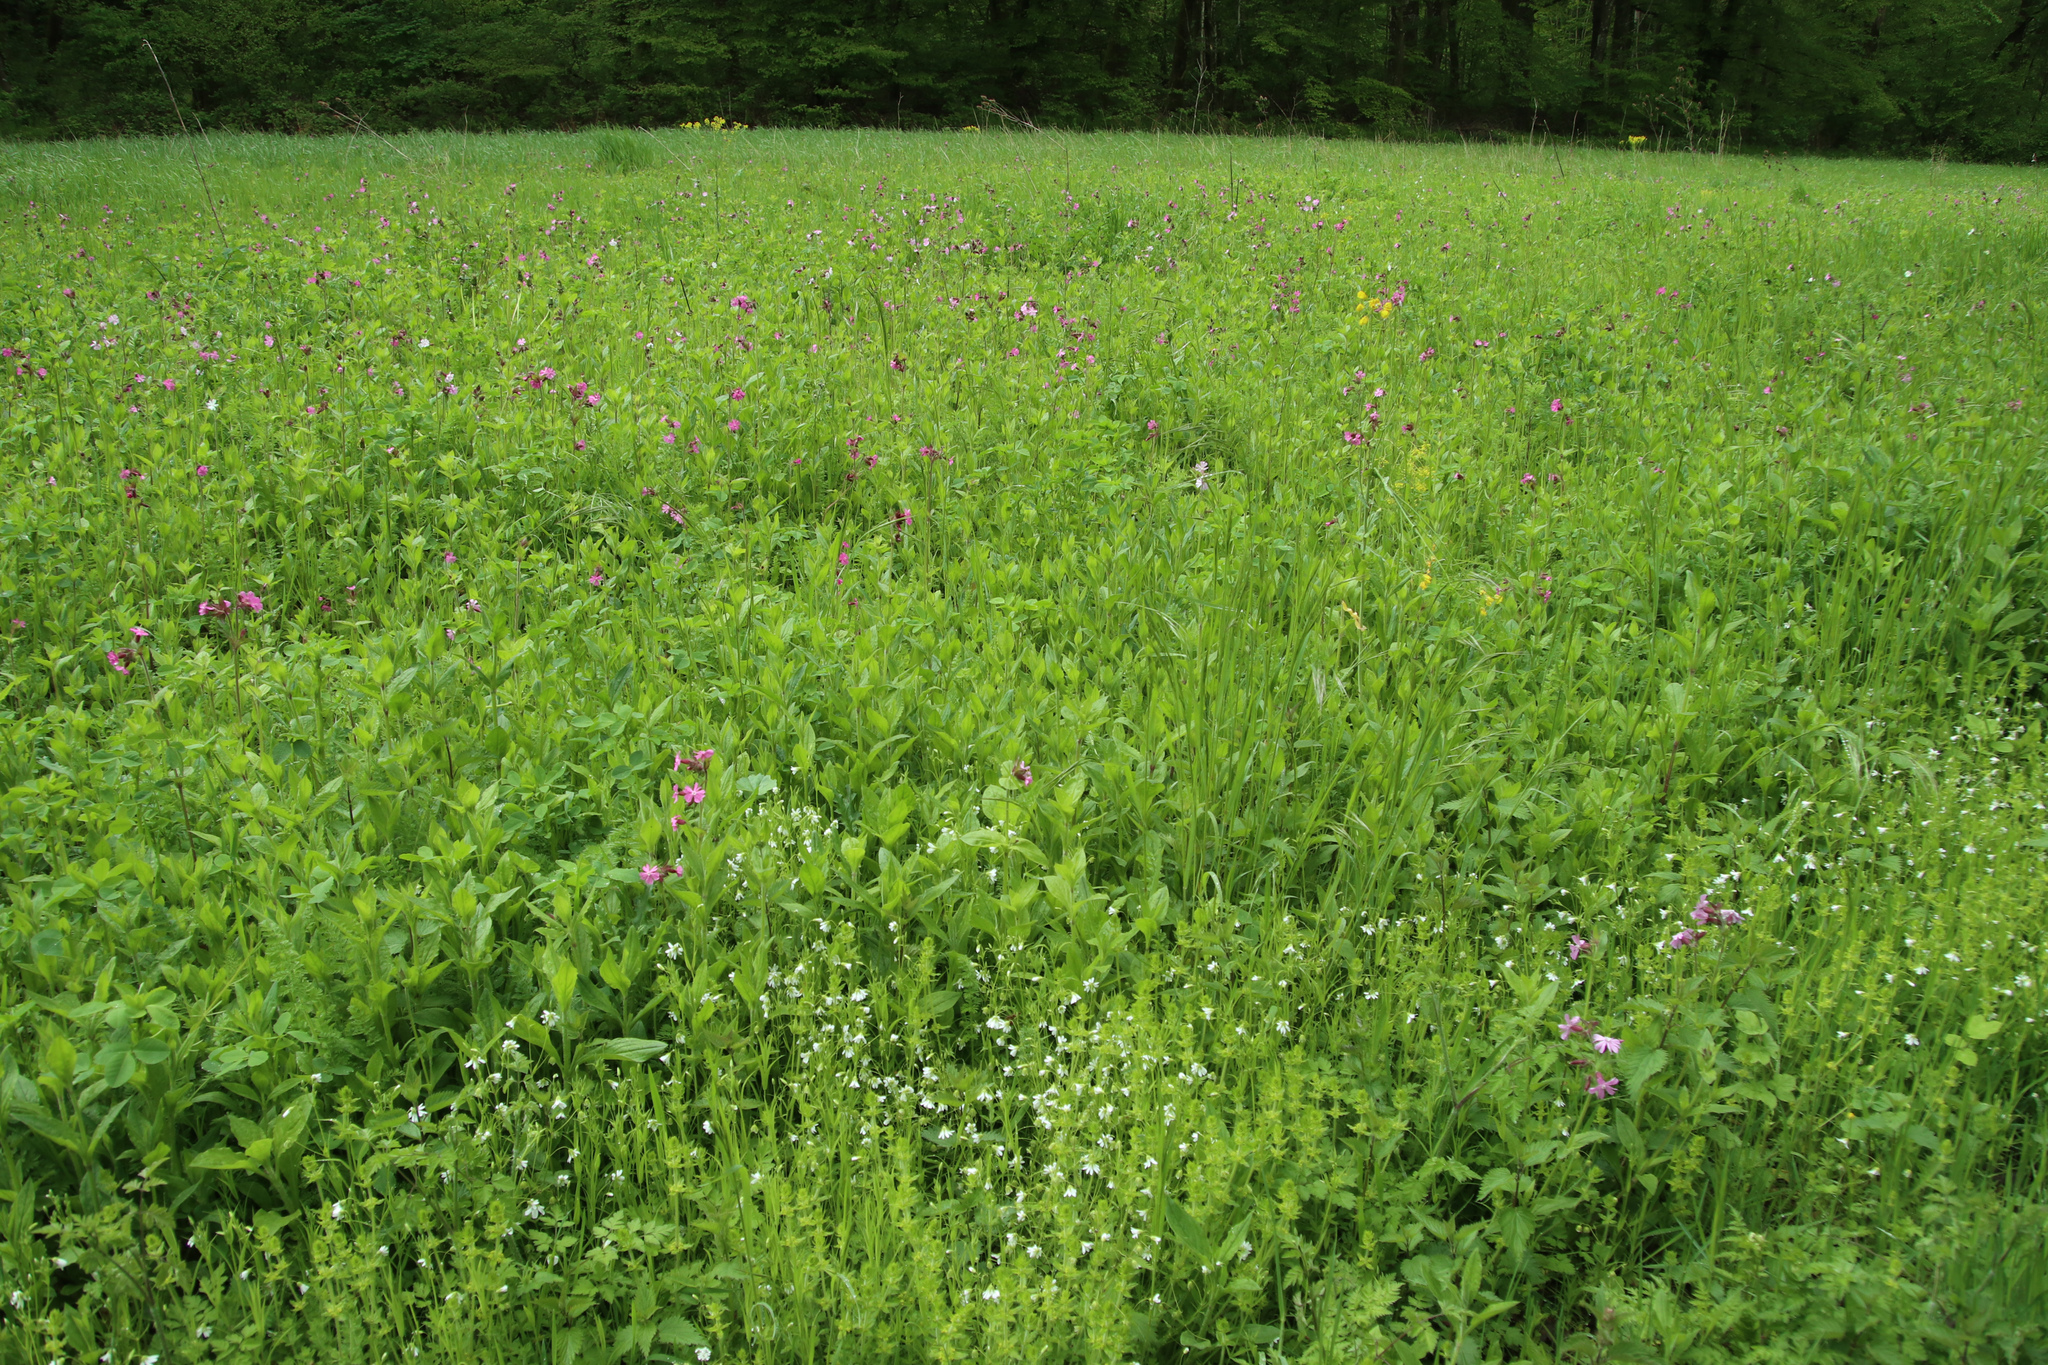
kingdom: Plantae
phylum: Tracheophyta
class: Magnoliopsida
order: Caryophyllales
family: Caryophyllaceae
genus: Silene
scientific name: Silene dioica
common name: Red campion
